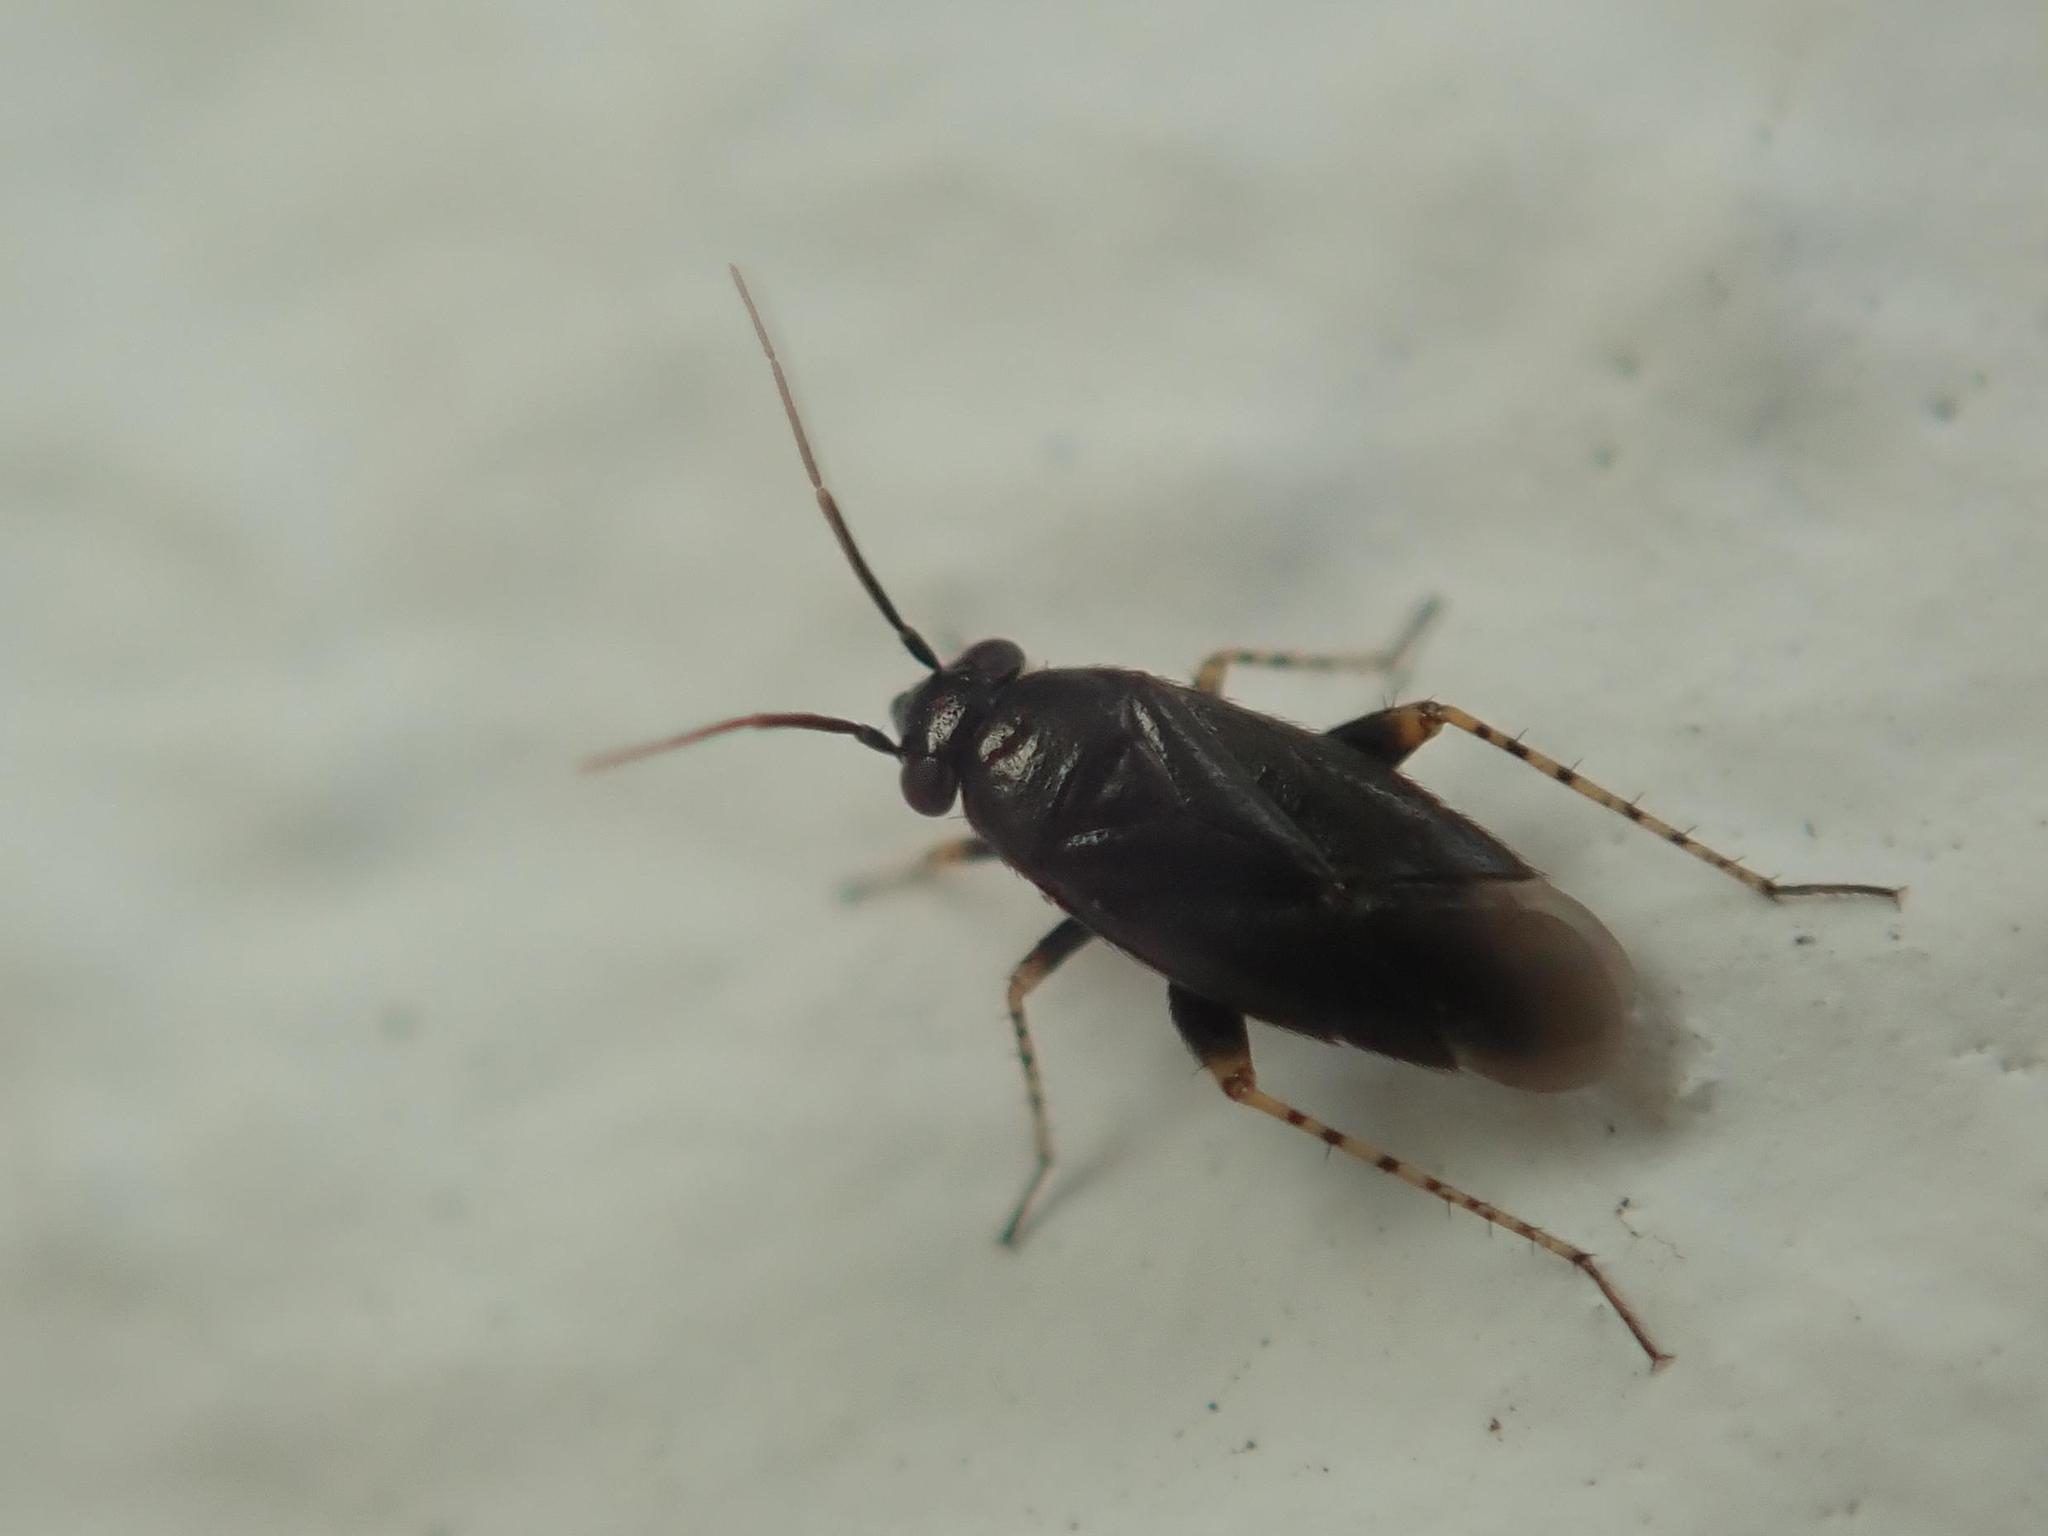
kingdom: Animalia
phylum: Arthropoda
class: Insecta
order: Hemiptera
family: Miridae
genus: Chlamydatus
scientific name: Chlamydatus pullus
